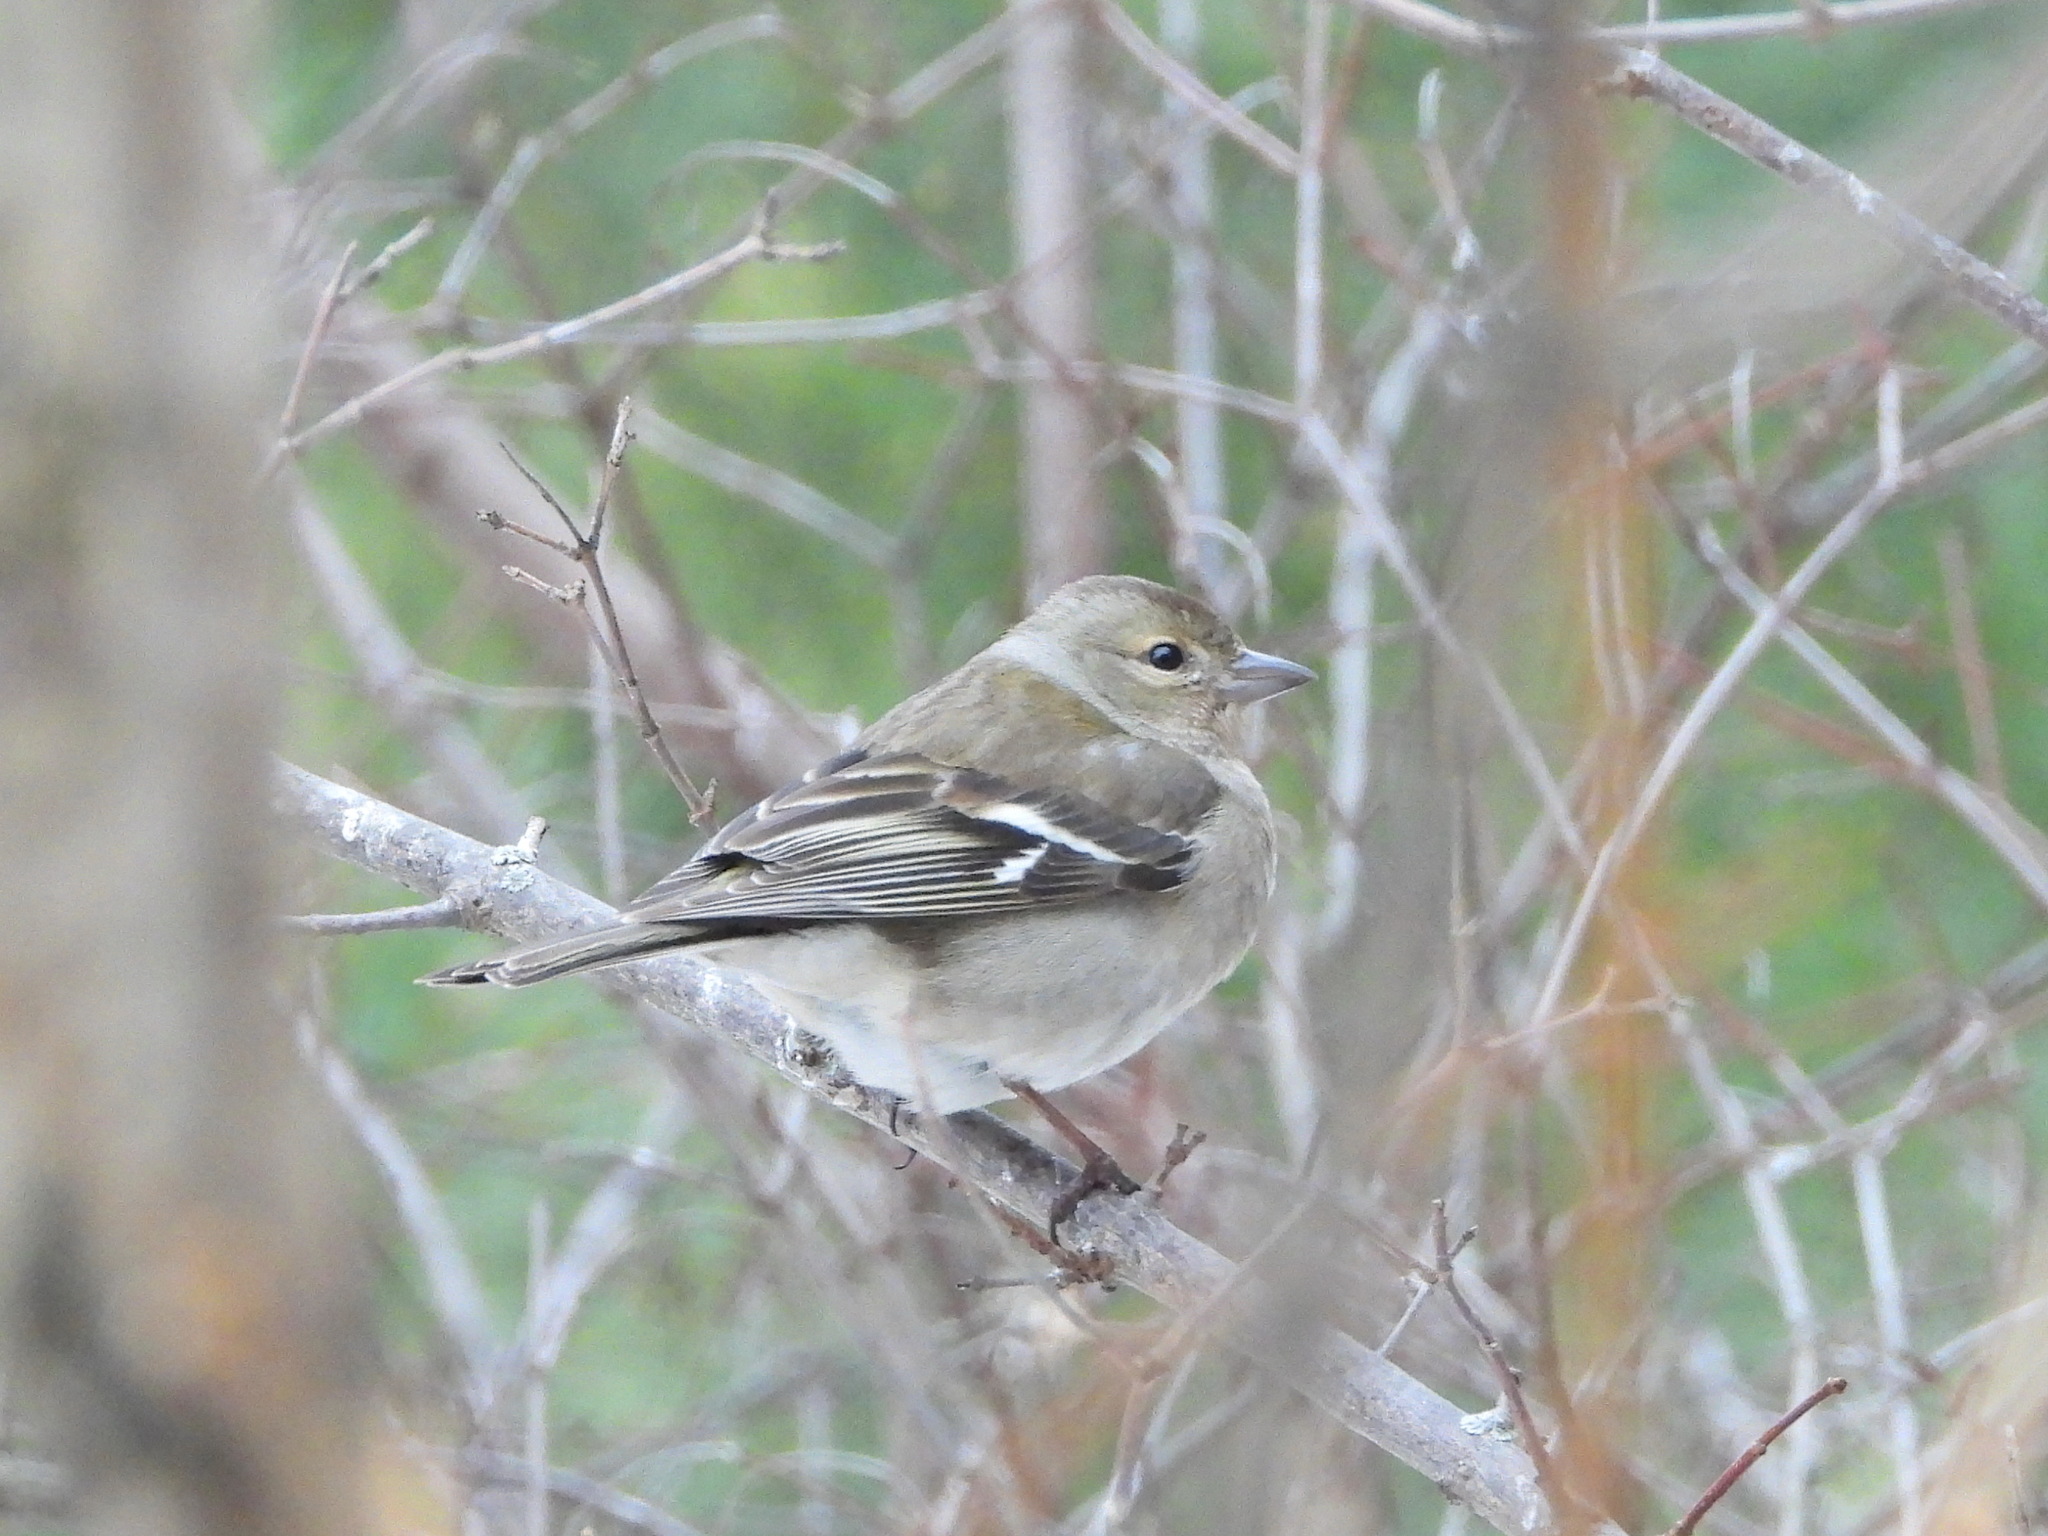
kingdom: Animalia
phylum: Chordata
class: Aves
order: Passeriformes
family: Fringillidae
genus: Fringilla
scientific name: Fringilla coelebs
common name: Common chaffinch
